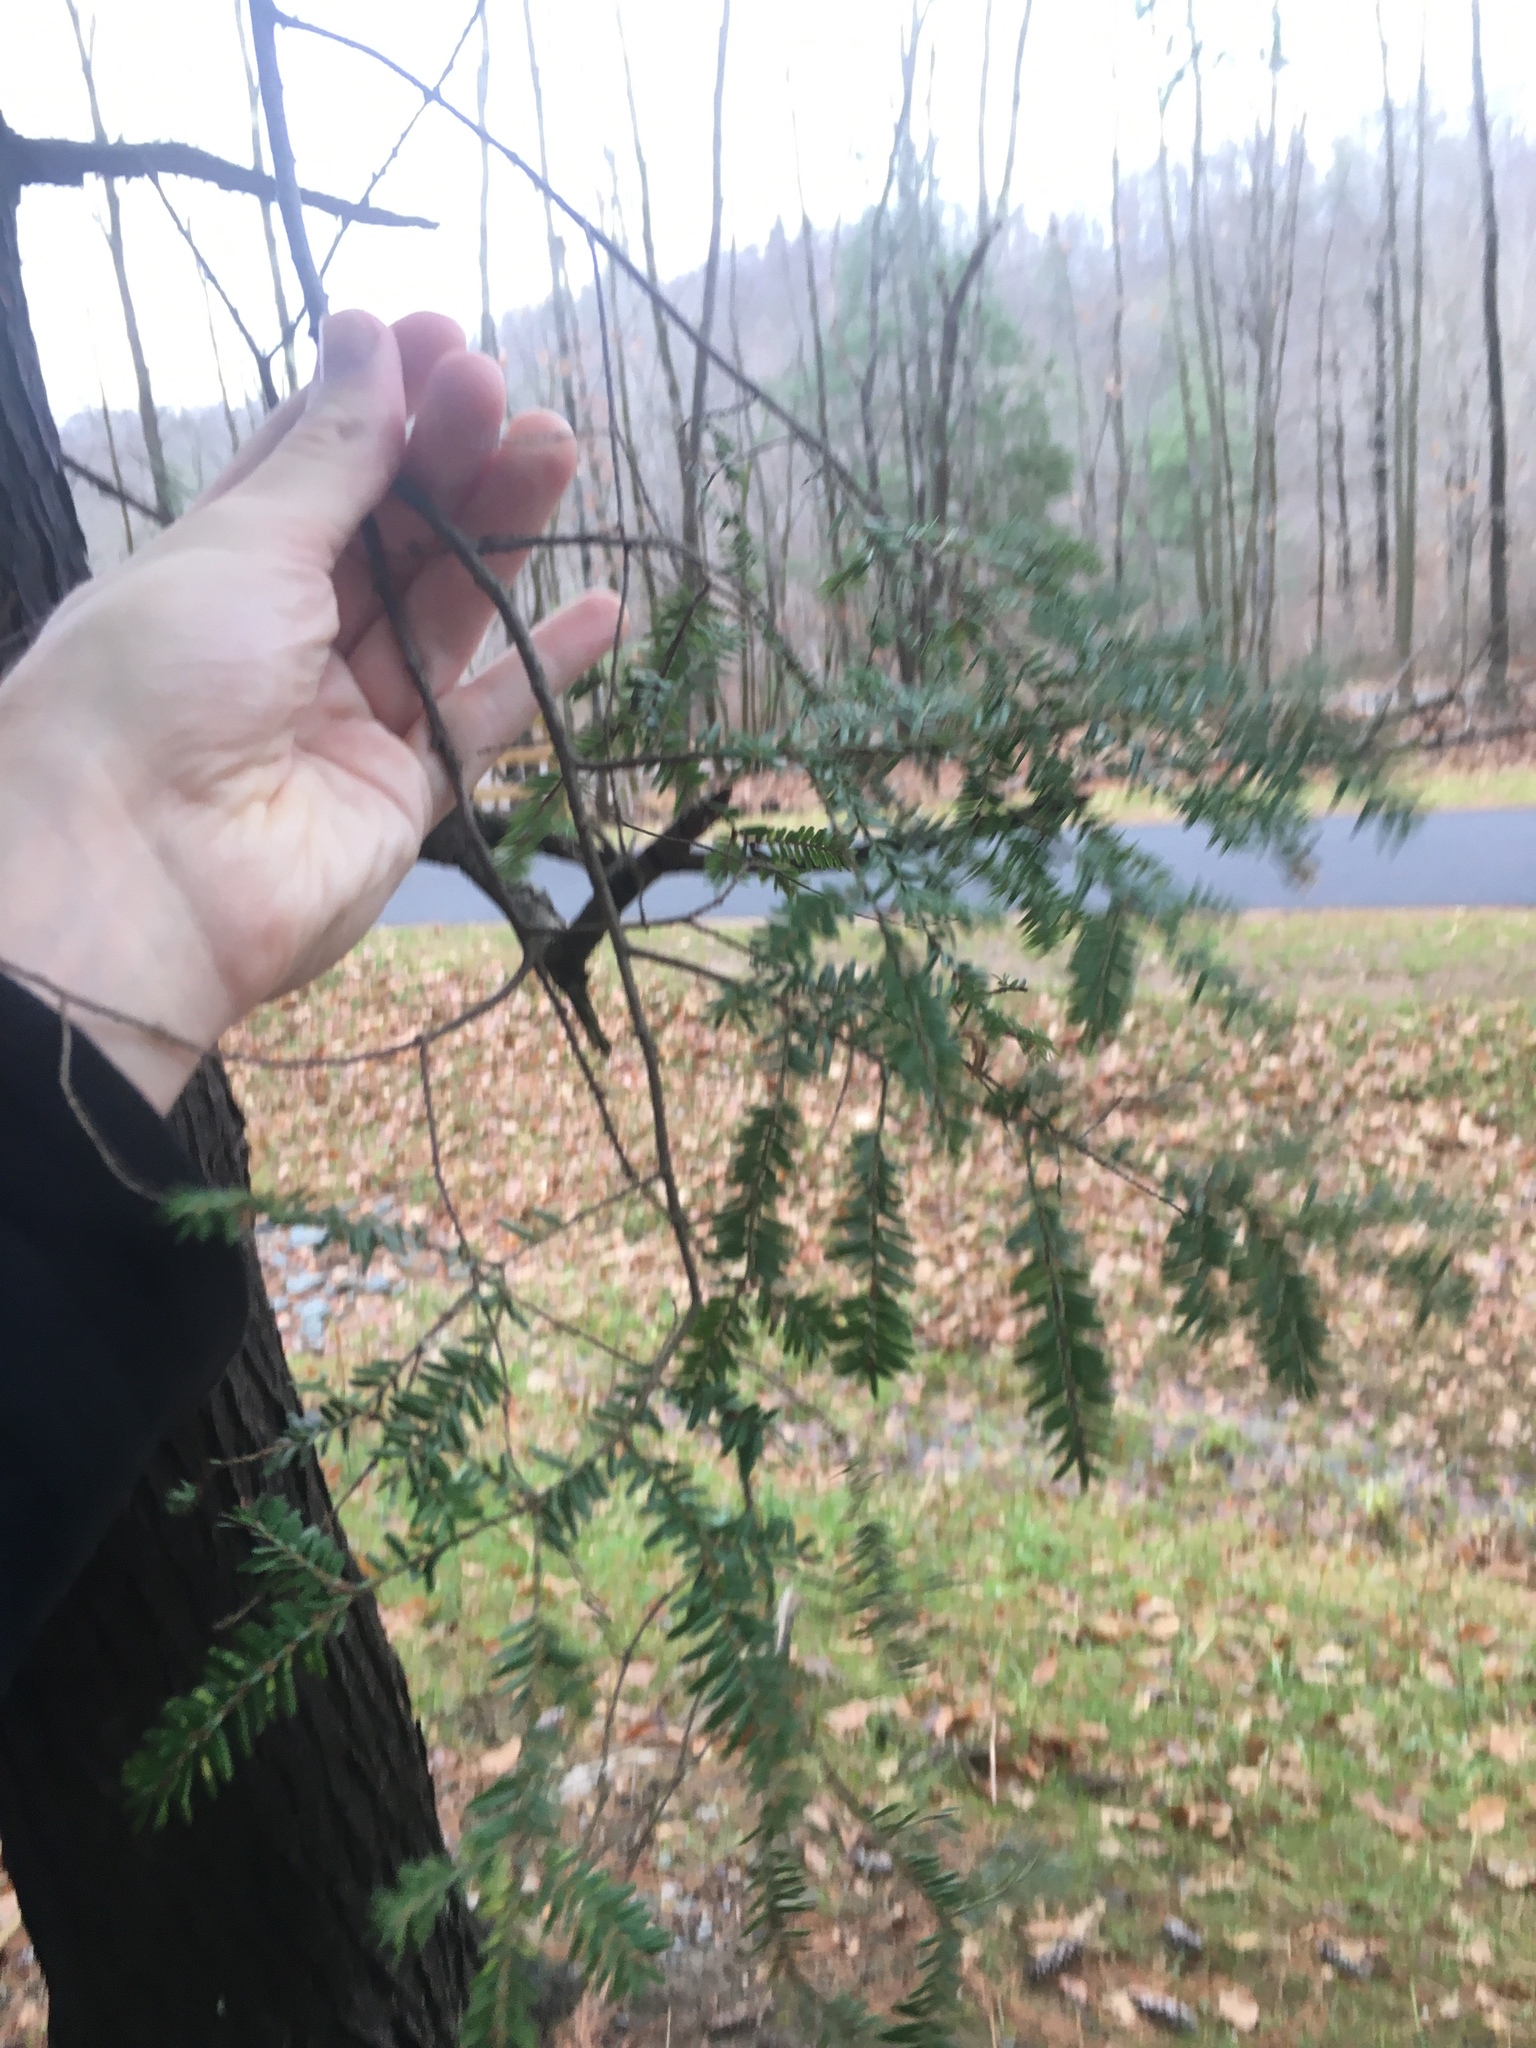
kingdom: Plantae
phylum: Tracheophyta
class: Pinopsida
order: Pinales
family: Pinaceae
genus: Tsuga
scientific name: Tsuga canadensis
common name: Eastern hemlock
